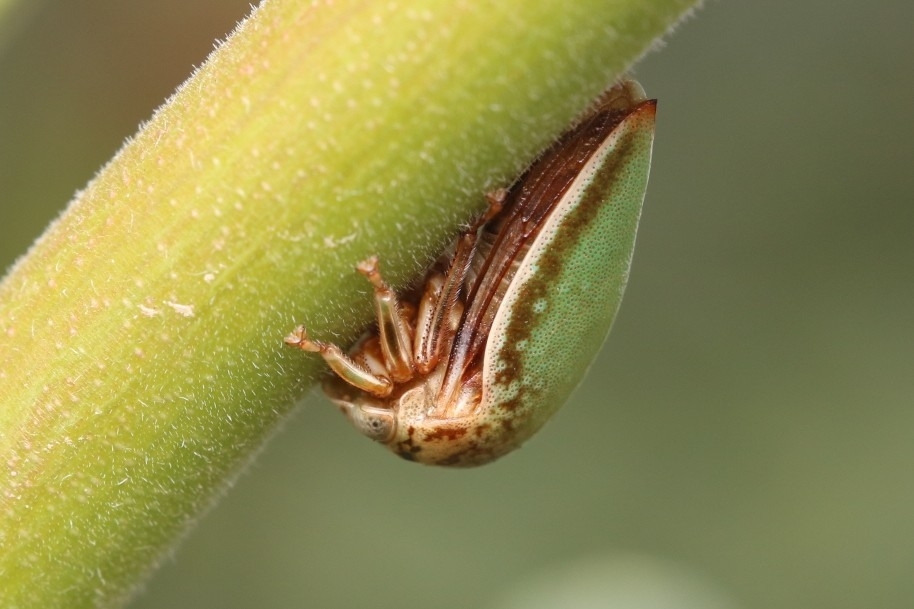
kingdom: Animalia
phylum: Arthropoda
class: Insecta
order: Hemiptera
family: Membracidae
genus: Stictopelta
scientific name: Stictopelta marmorata
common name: Treehopper
